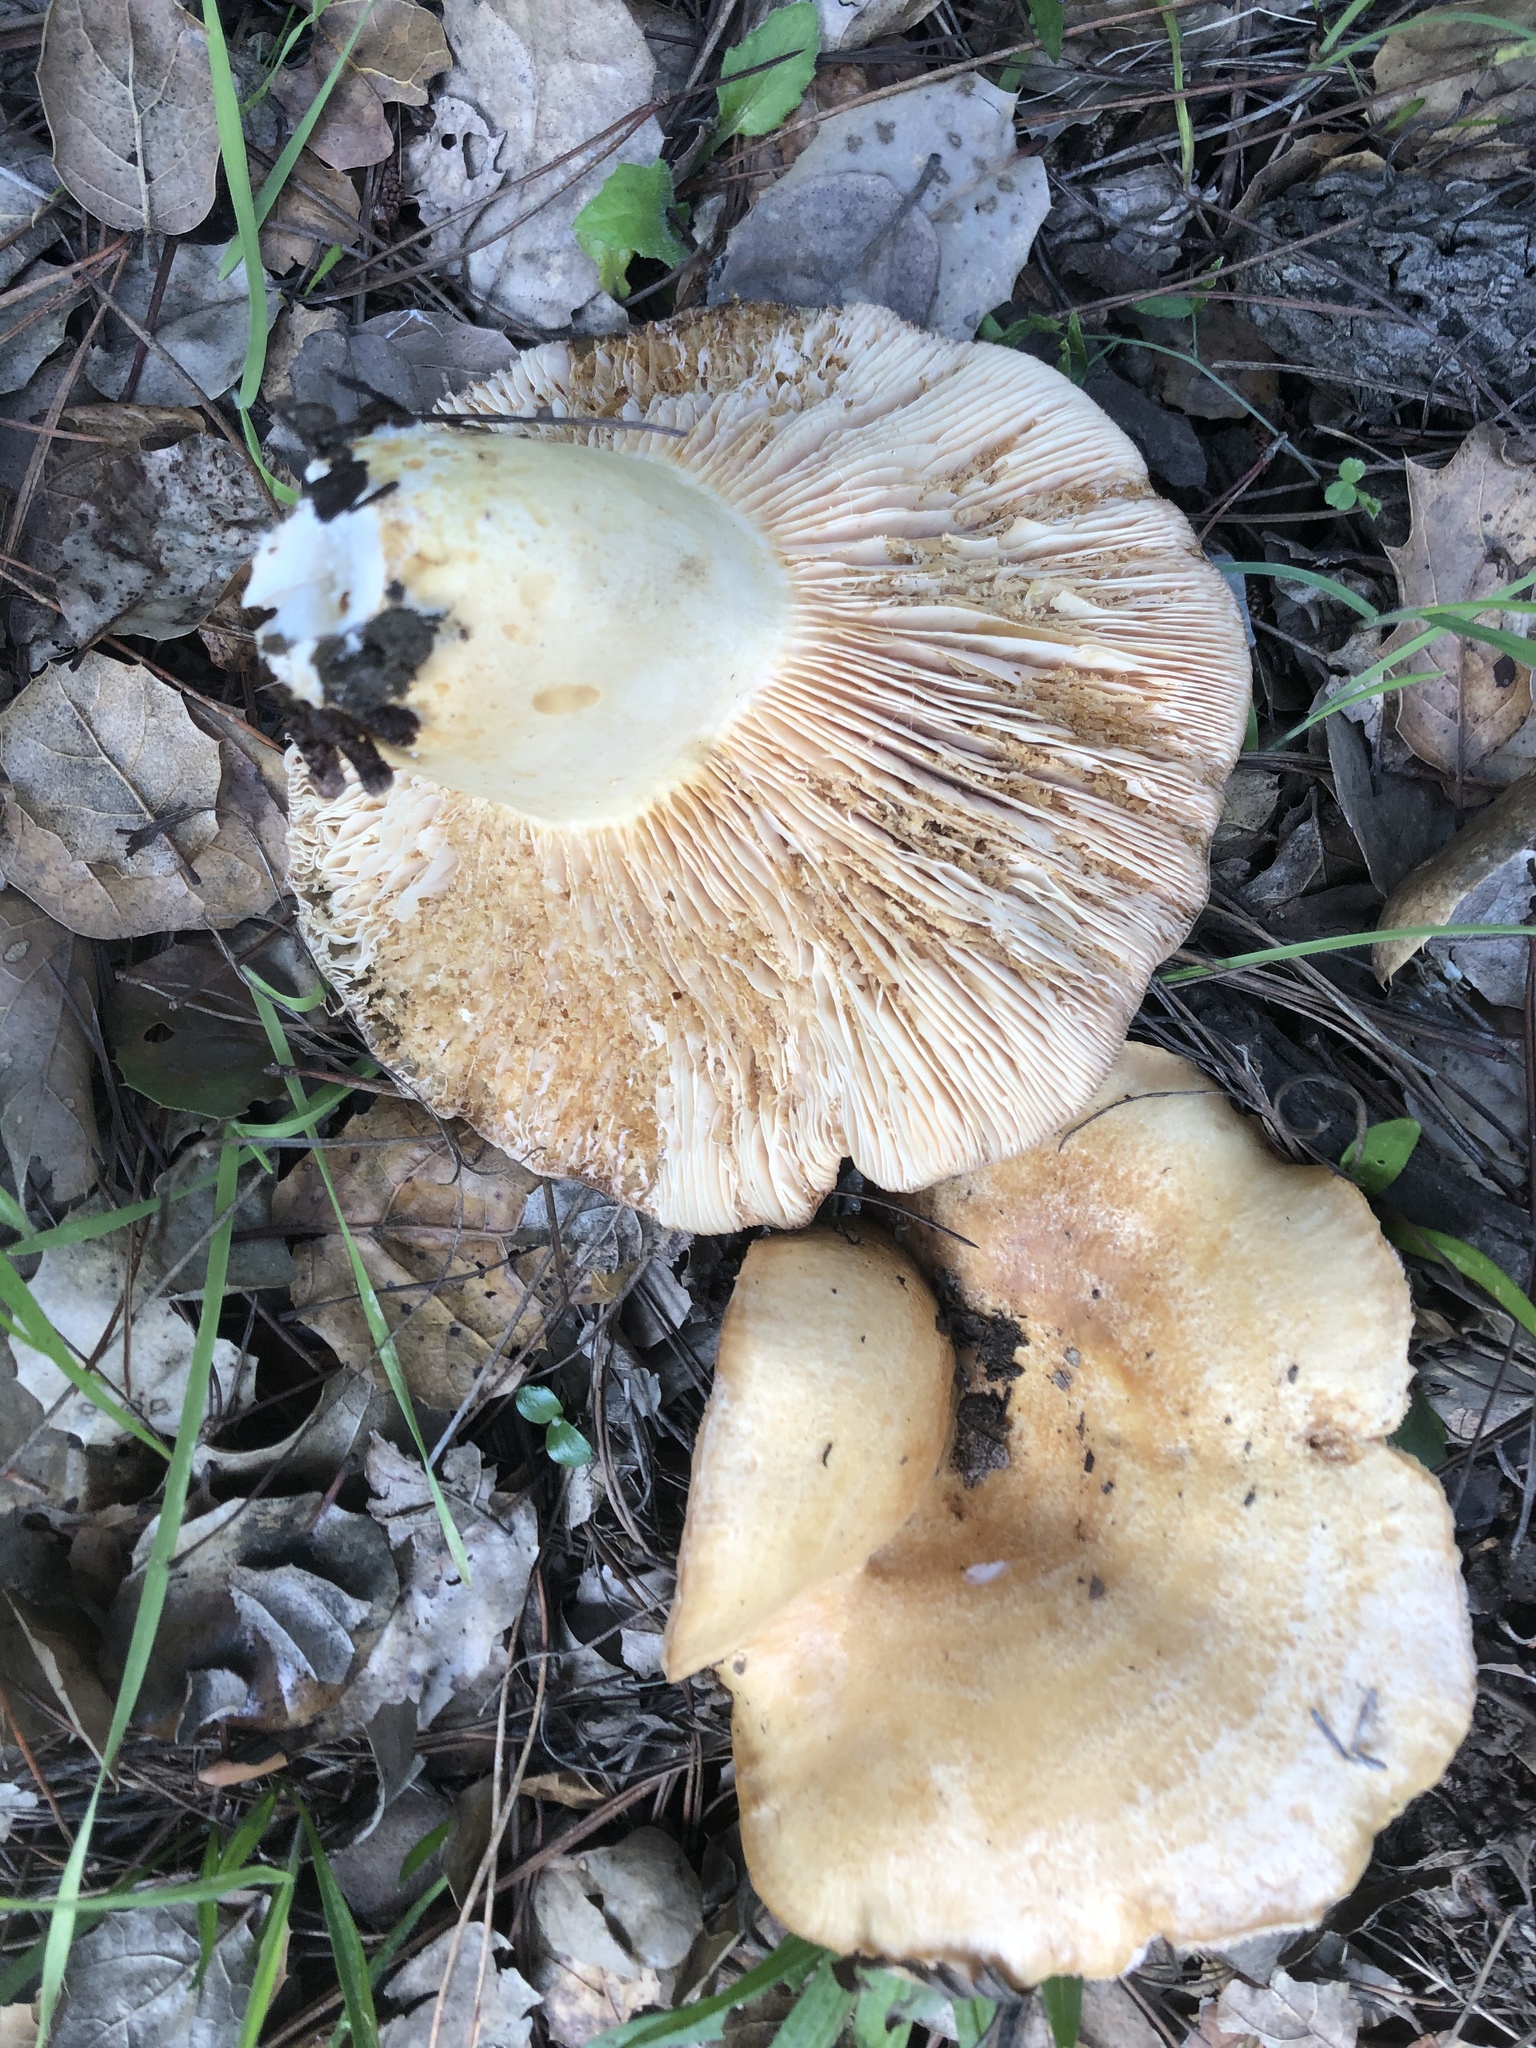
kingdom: Fungi
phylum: Basidiomycota
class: Agaricomycetes
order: Russulales
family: Russulaceae
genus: Lactarius
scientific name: Lactarius alnicola
